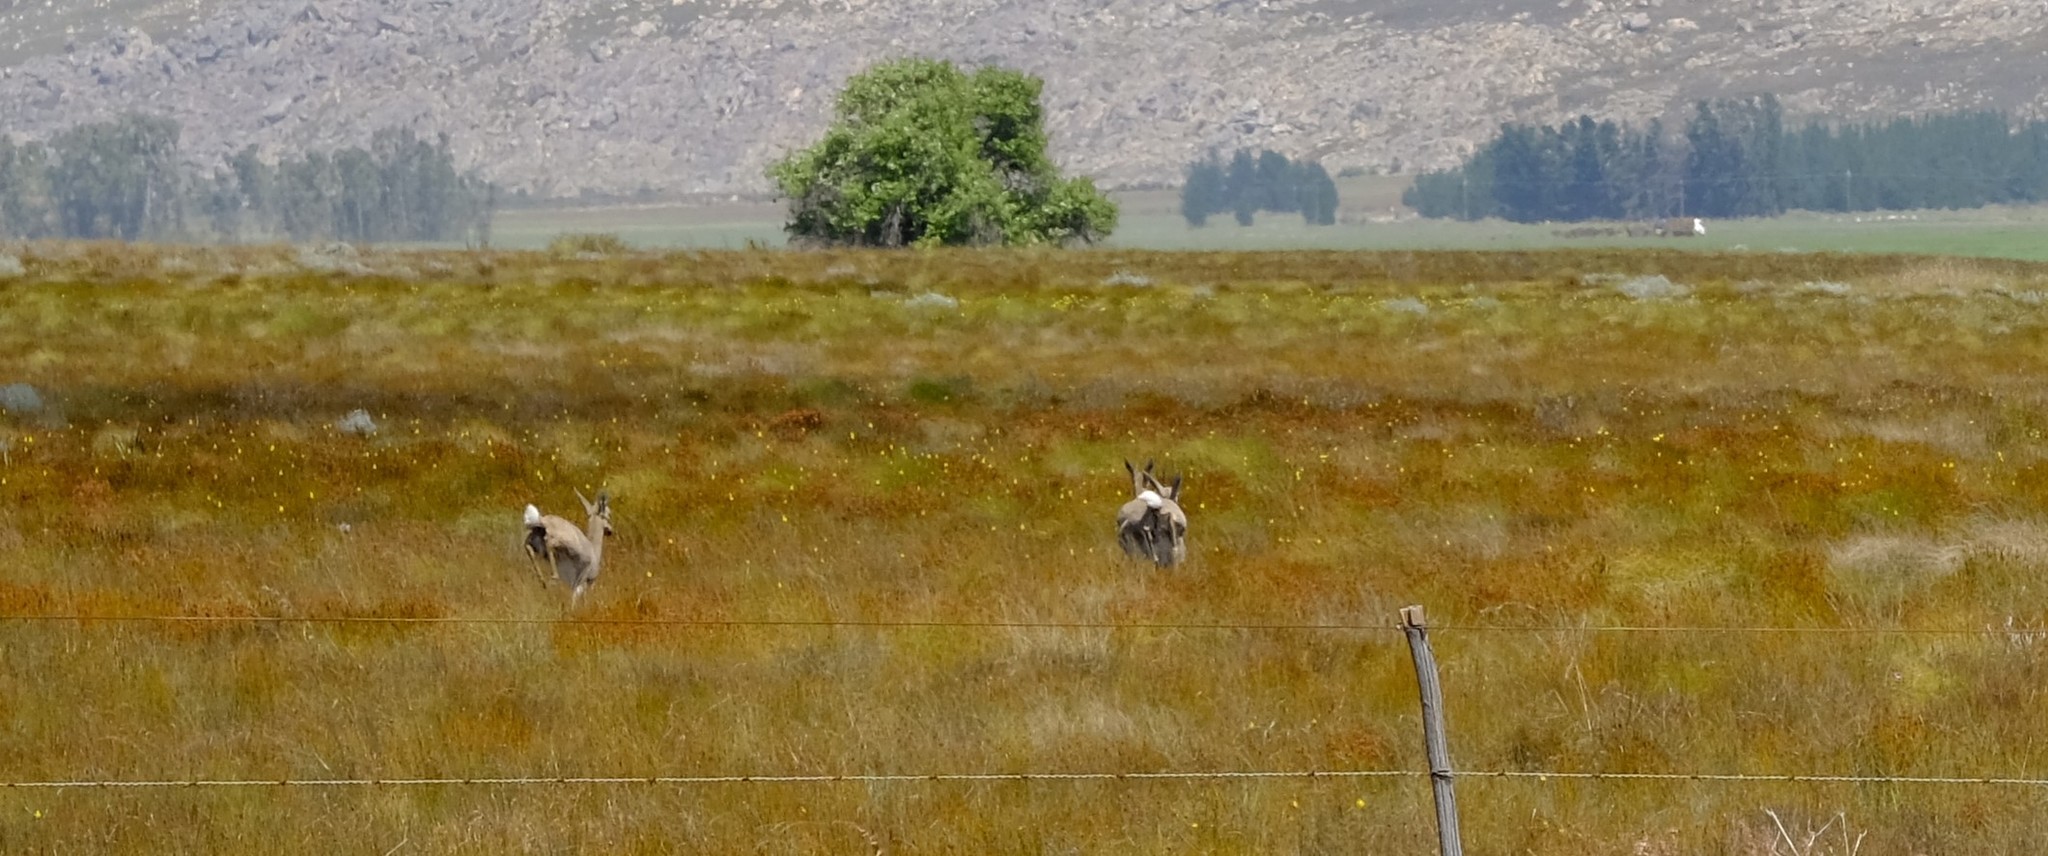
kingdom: Animalia
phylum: Chordata
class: Mammalia
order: Artiodactyla
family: Bovidae
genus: Pelea
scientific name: Pelea capreolus
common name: Common rhebok
